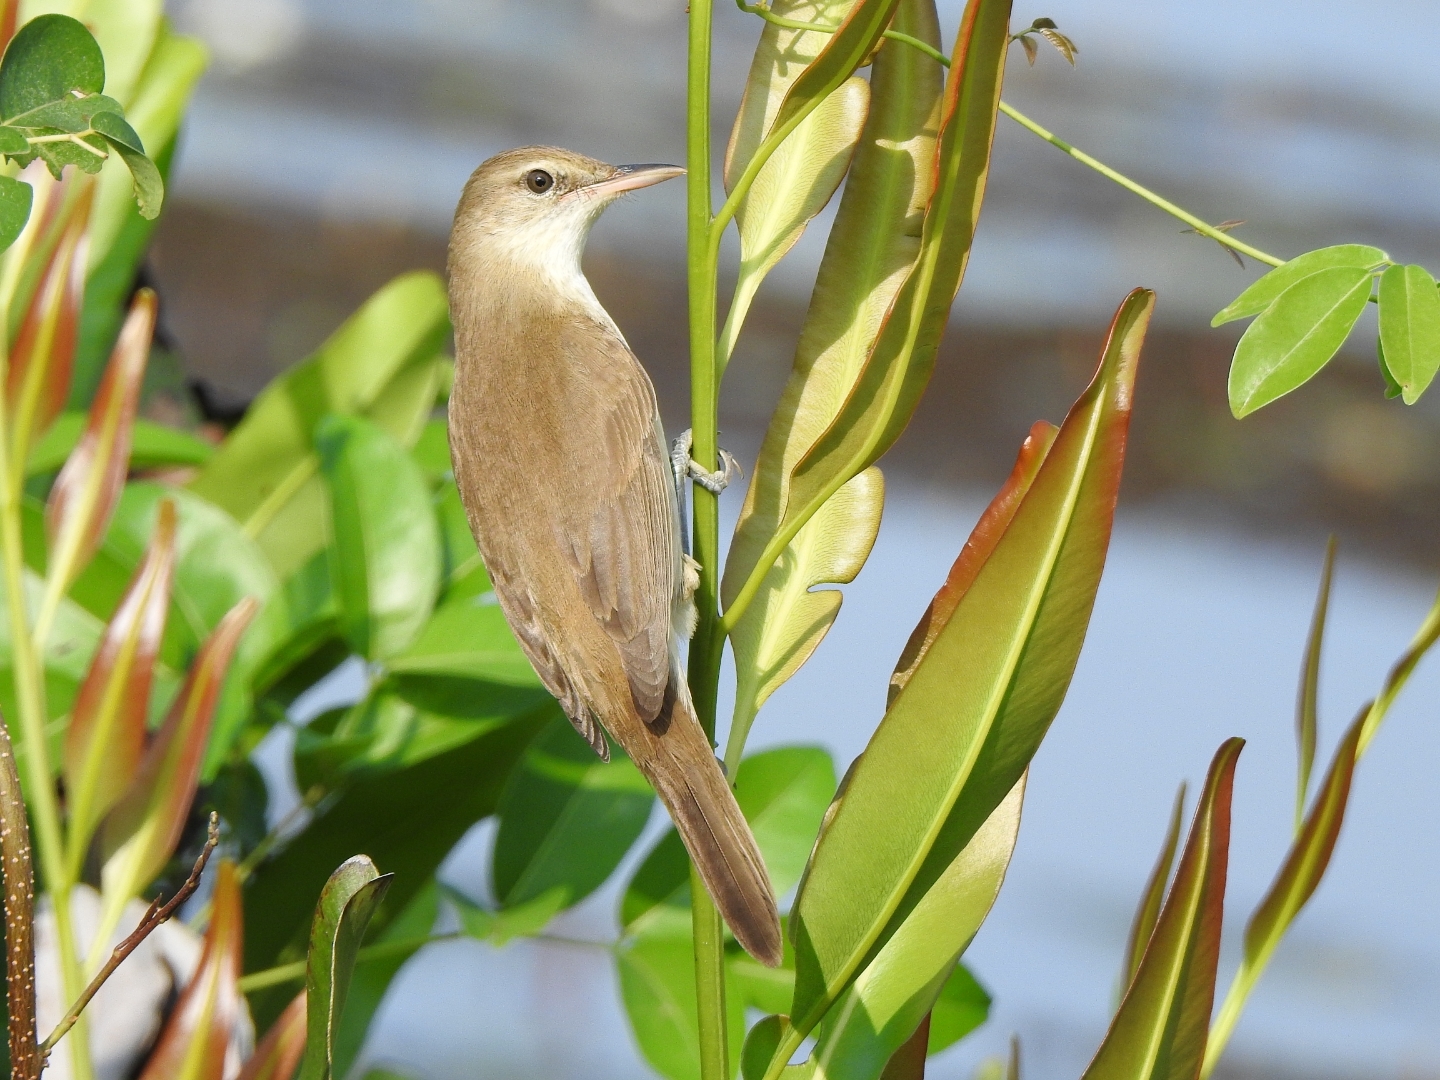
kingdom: Animalia
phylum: Chordata
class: Aves
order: Passeriformes
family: Acrocephalidae
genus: Acrocephalus
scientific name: Acrocephalus stentoreus
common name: Clamorous reed warbler
